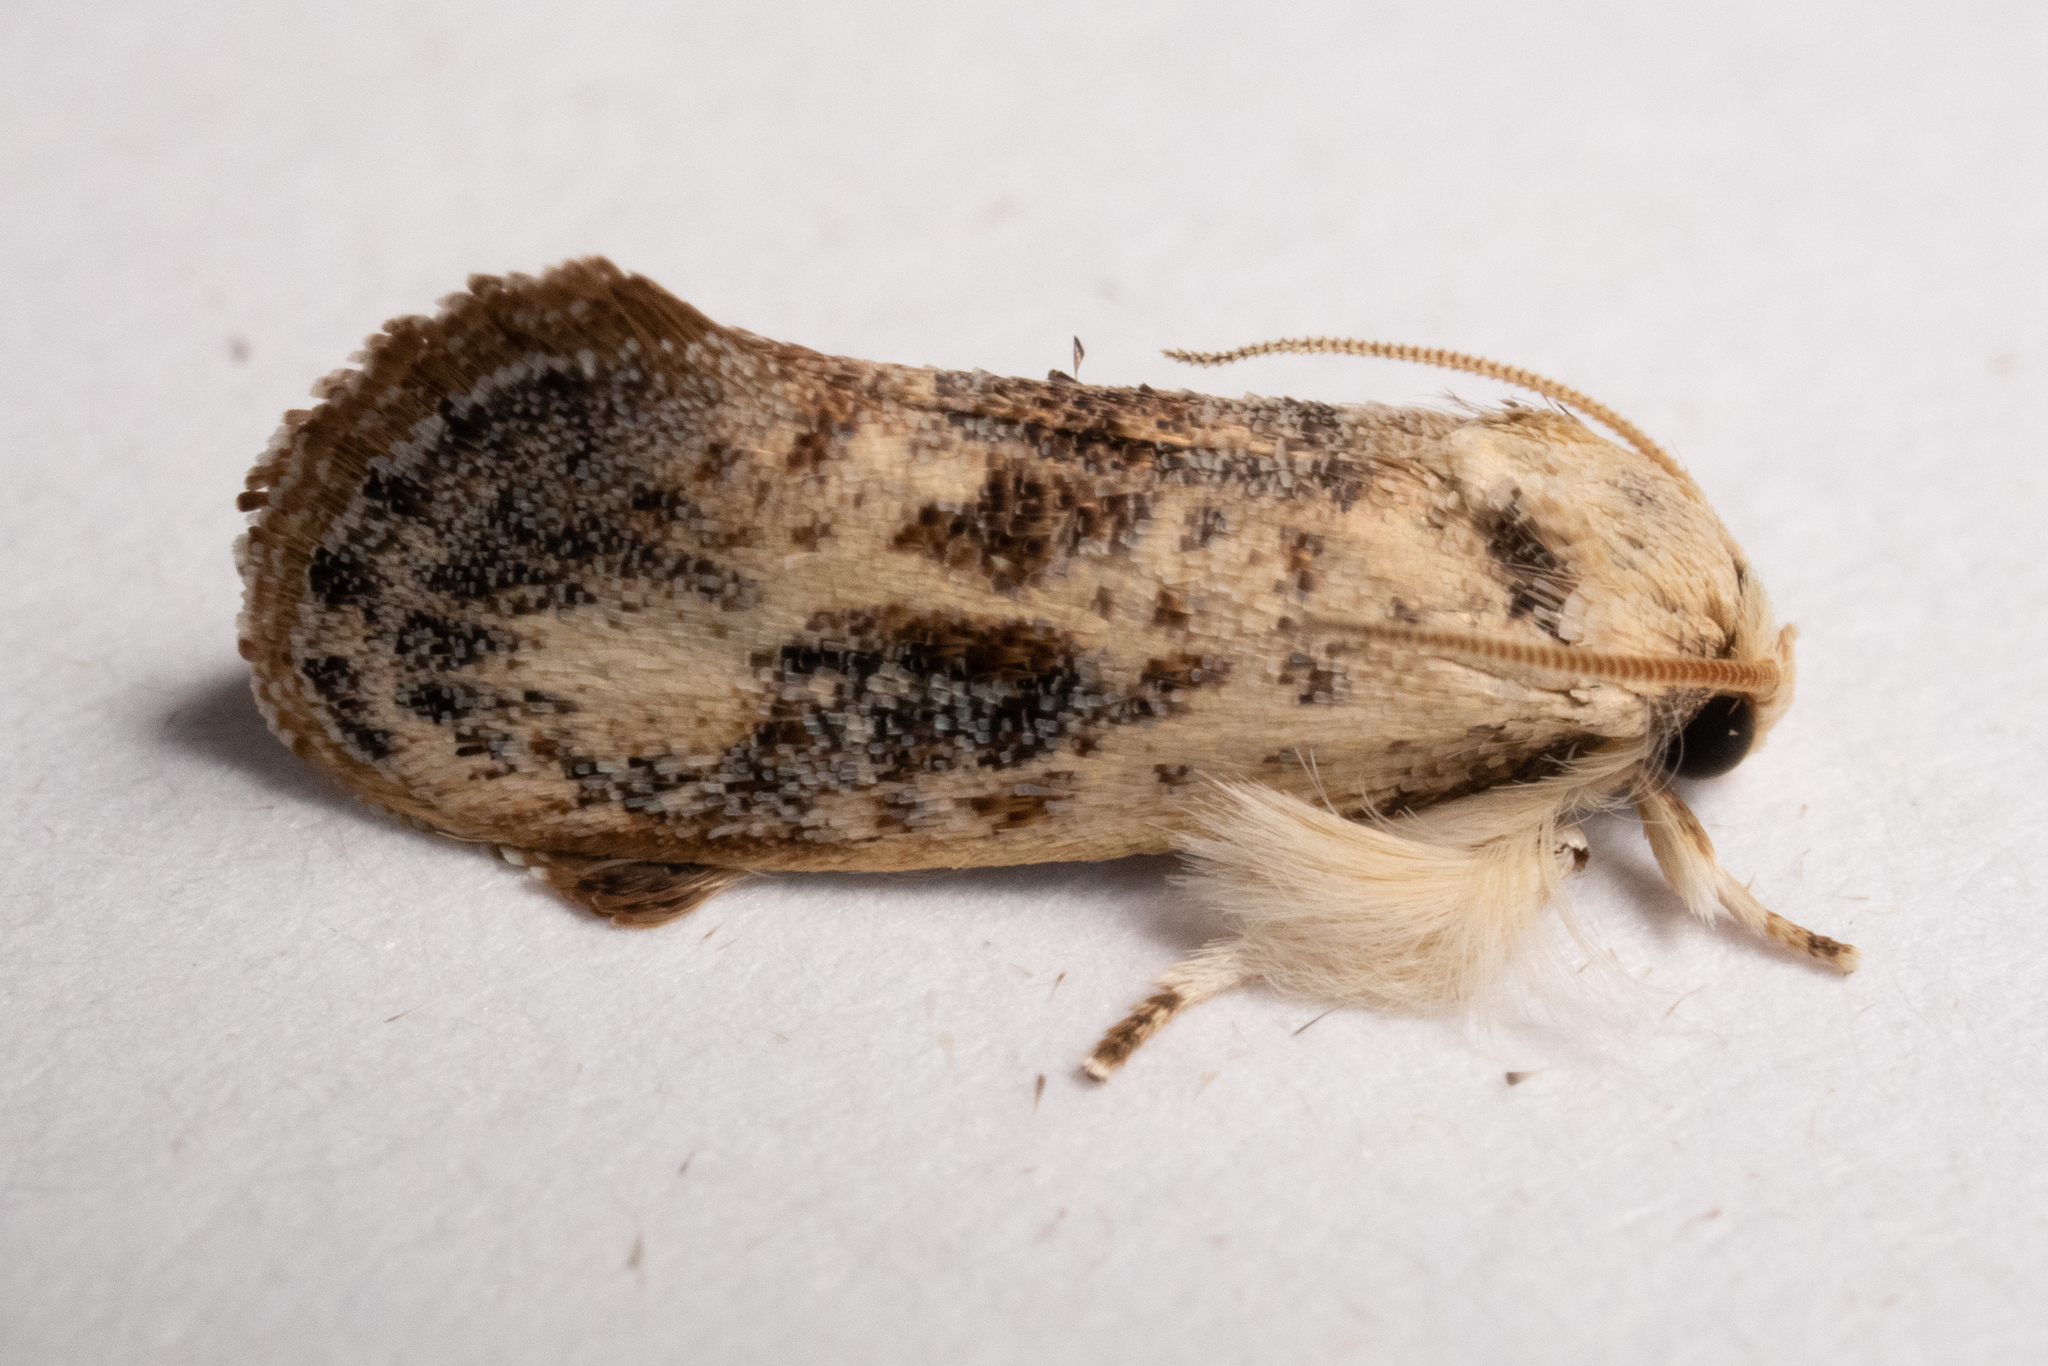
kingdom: Animalia
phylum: Arthropoda
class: Insecta
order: Lepidoptera
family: Tineidae
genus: Acrolophus
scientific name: Acrolophus mycetophagus
